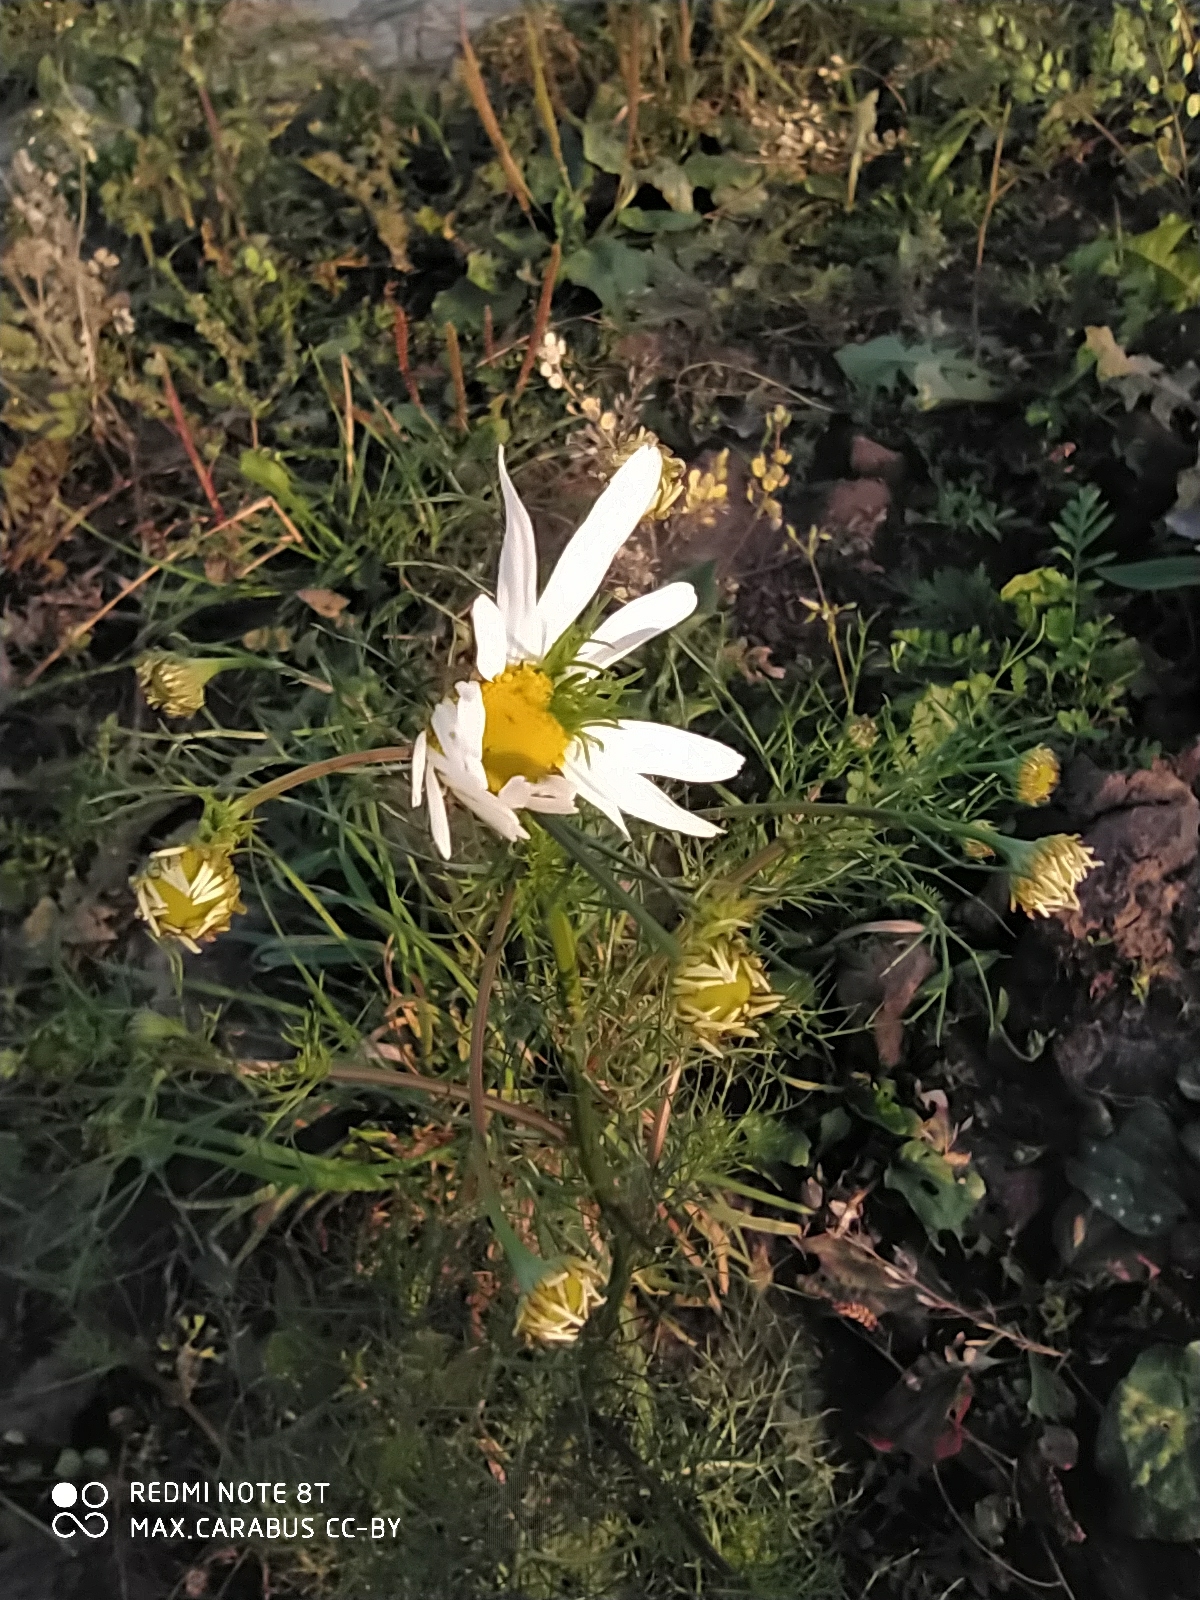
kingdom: Plantae
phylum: Tracheophyta
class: Magnoliopsida
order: Asterales
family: Asteraceae
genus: Tripleurospermum
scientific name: Tripleurospermum inodorum
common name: Scentless mayweed
